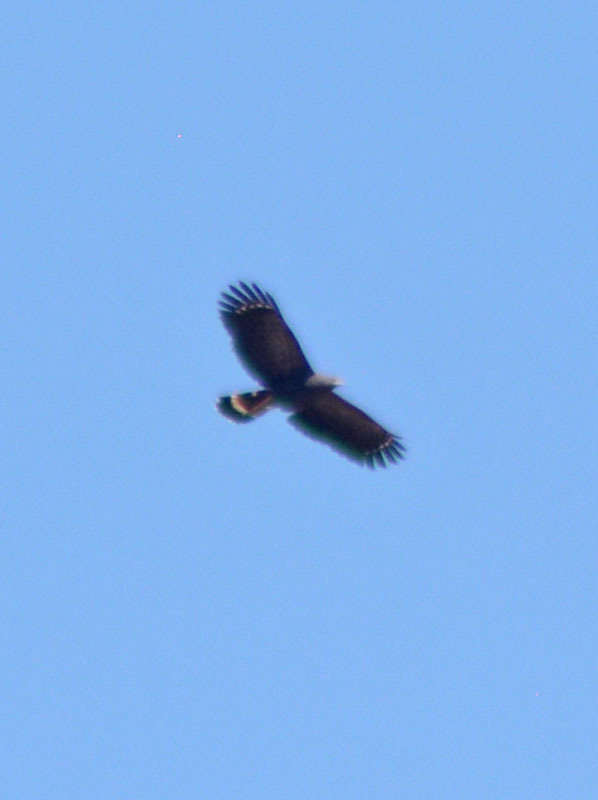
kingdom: Animalia
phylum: Chordata
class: Aves
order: Accipitriformes
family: Accipitridae
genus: Geranospiza
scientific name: Geranospiza caerulescens
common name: Crane hawk
